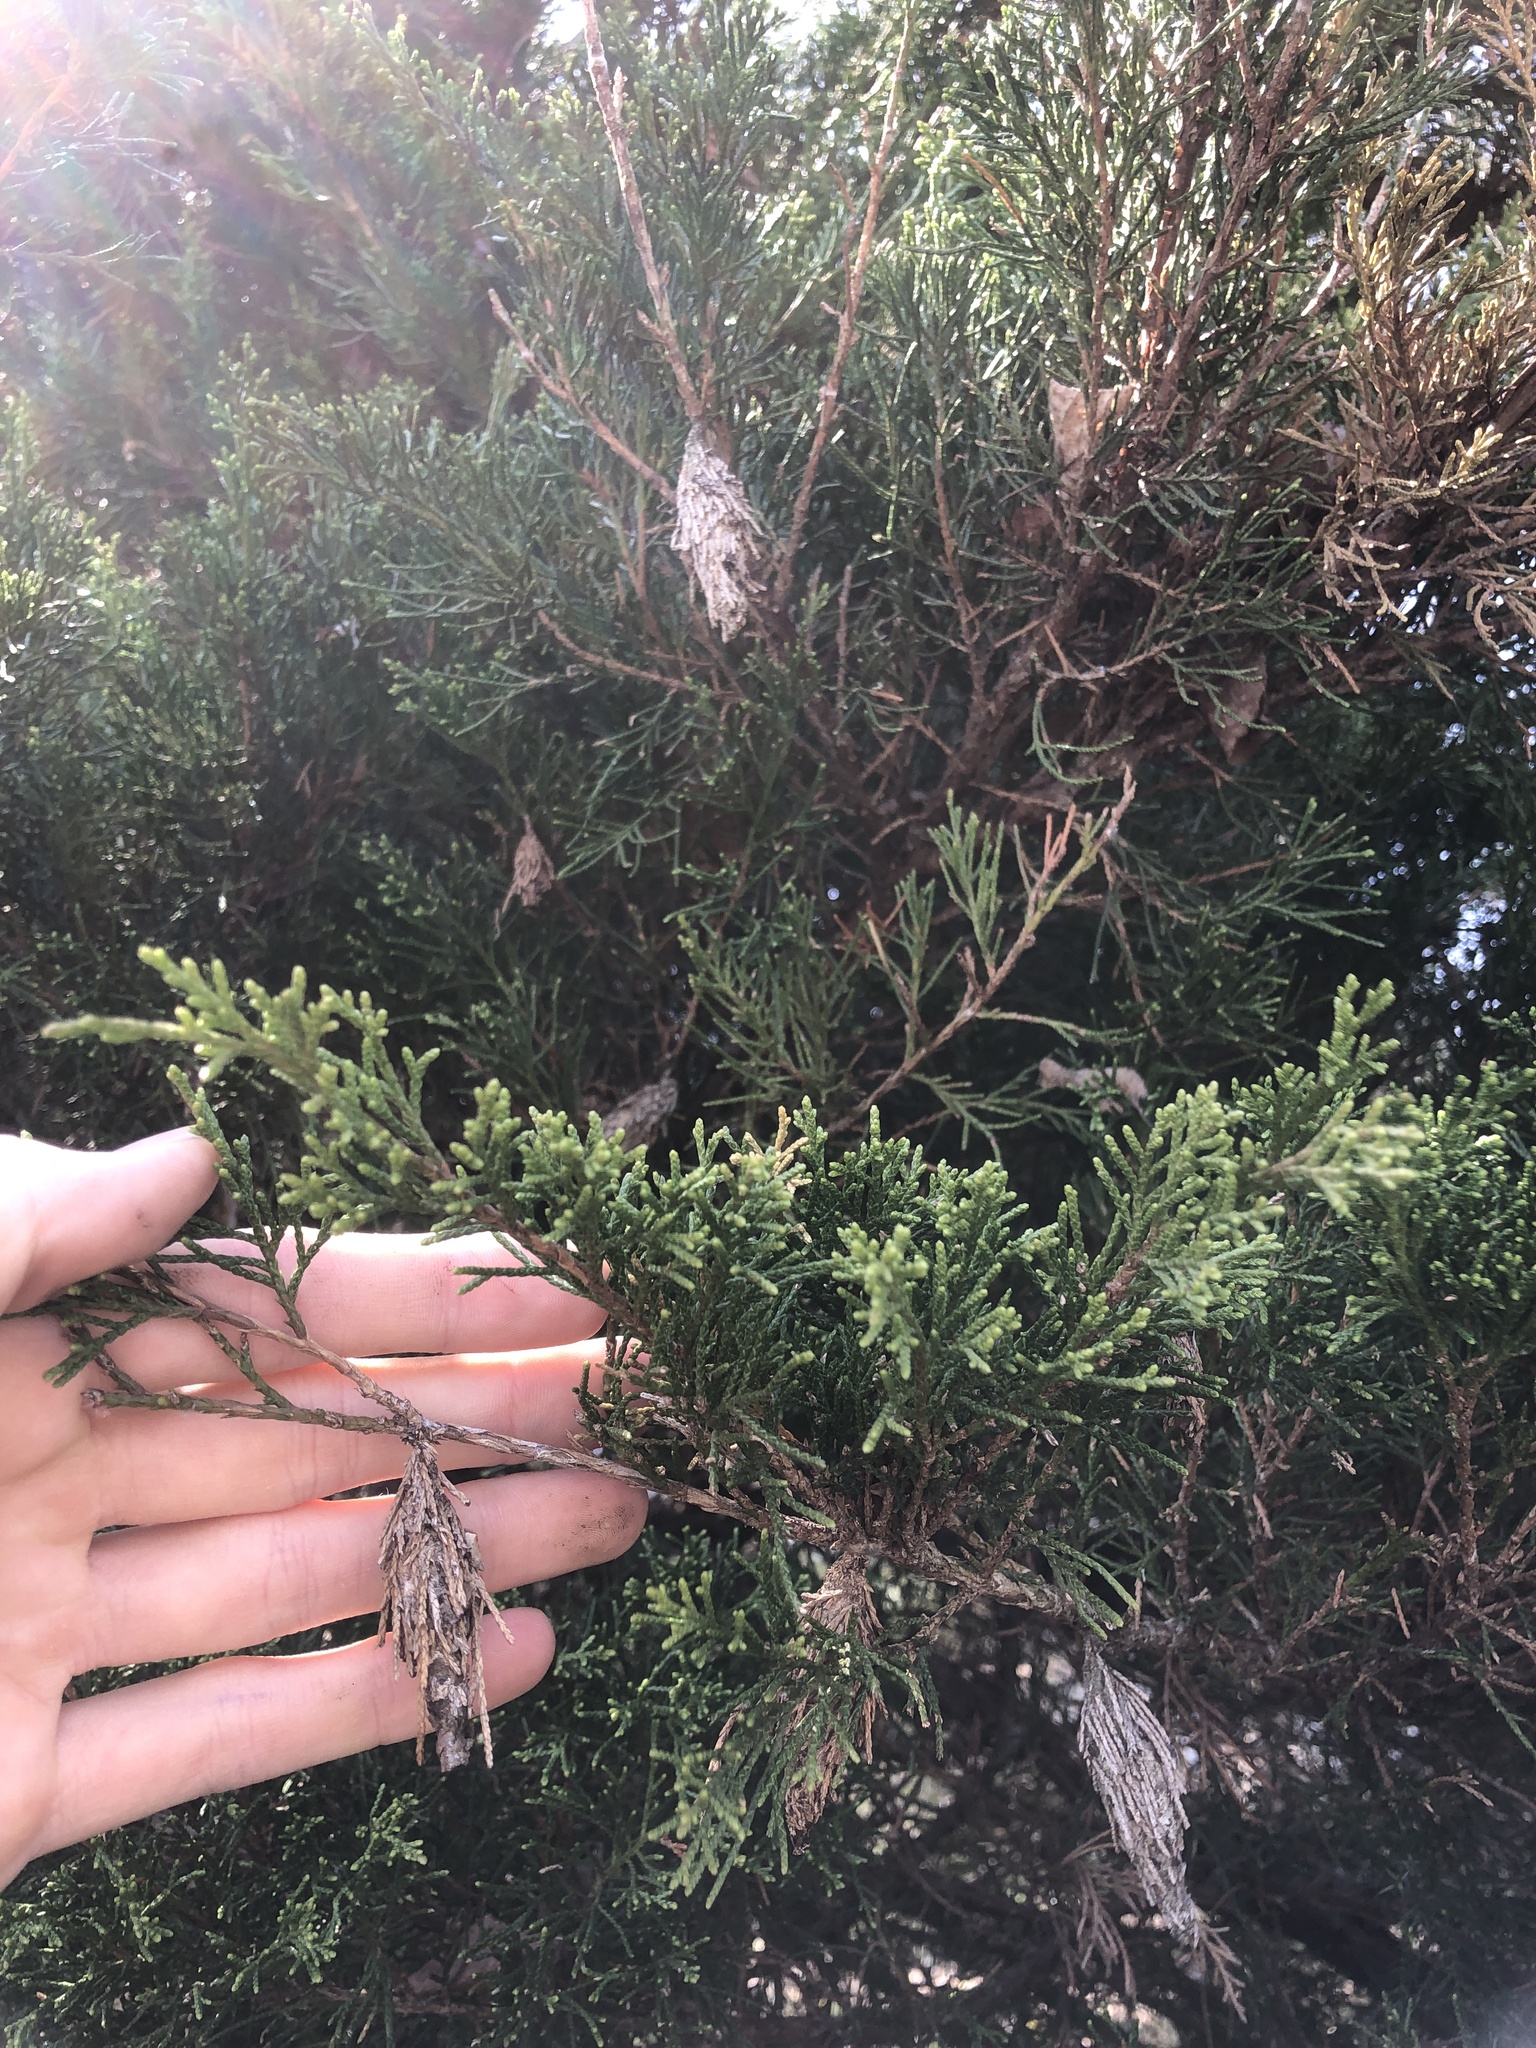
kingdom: Animalia
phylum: Arthropoda
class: Insecta
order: Lepidoptera
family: Psychidae
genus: Thyridopteryx
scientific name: Thyridopteryx ephemeraeformis
